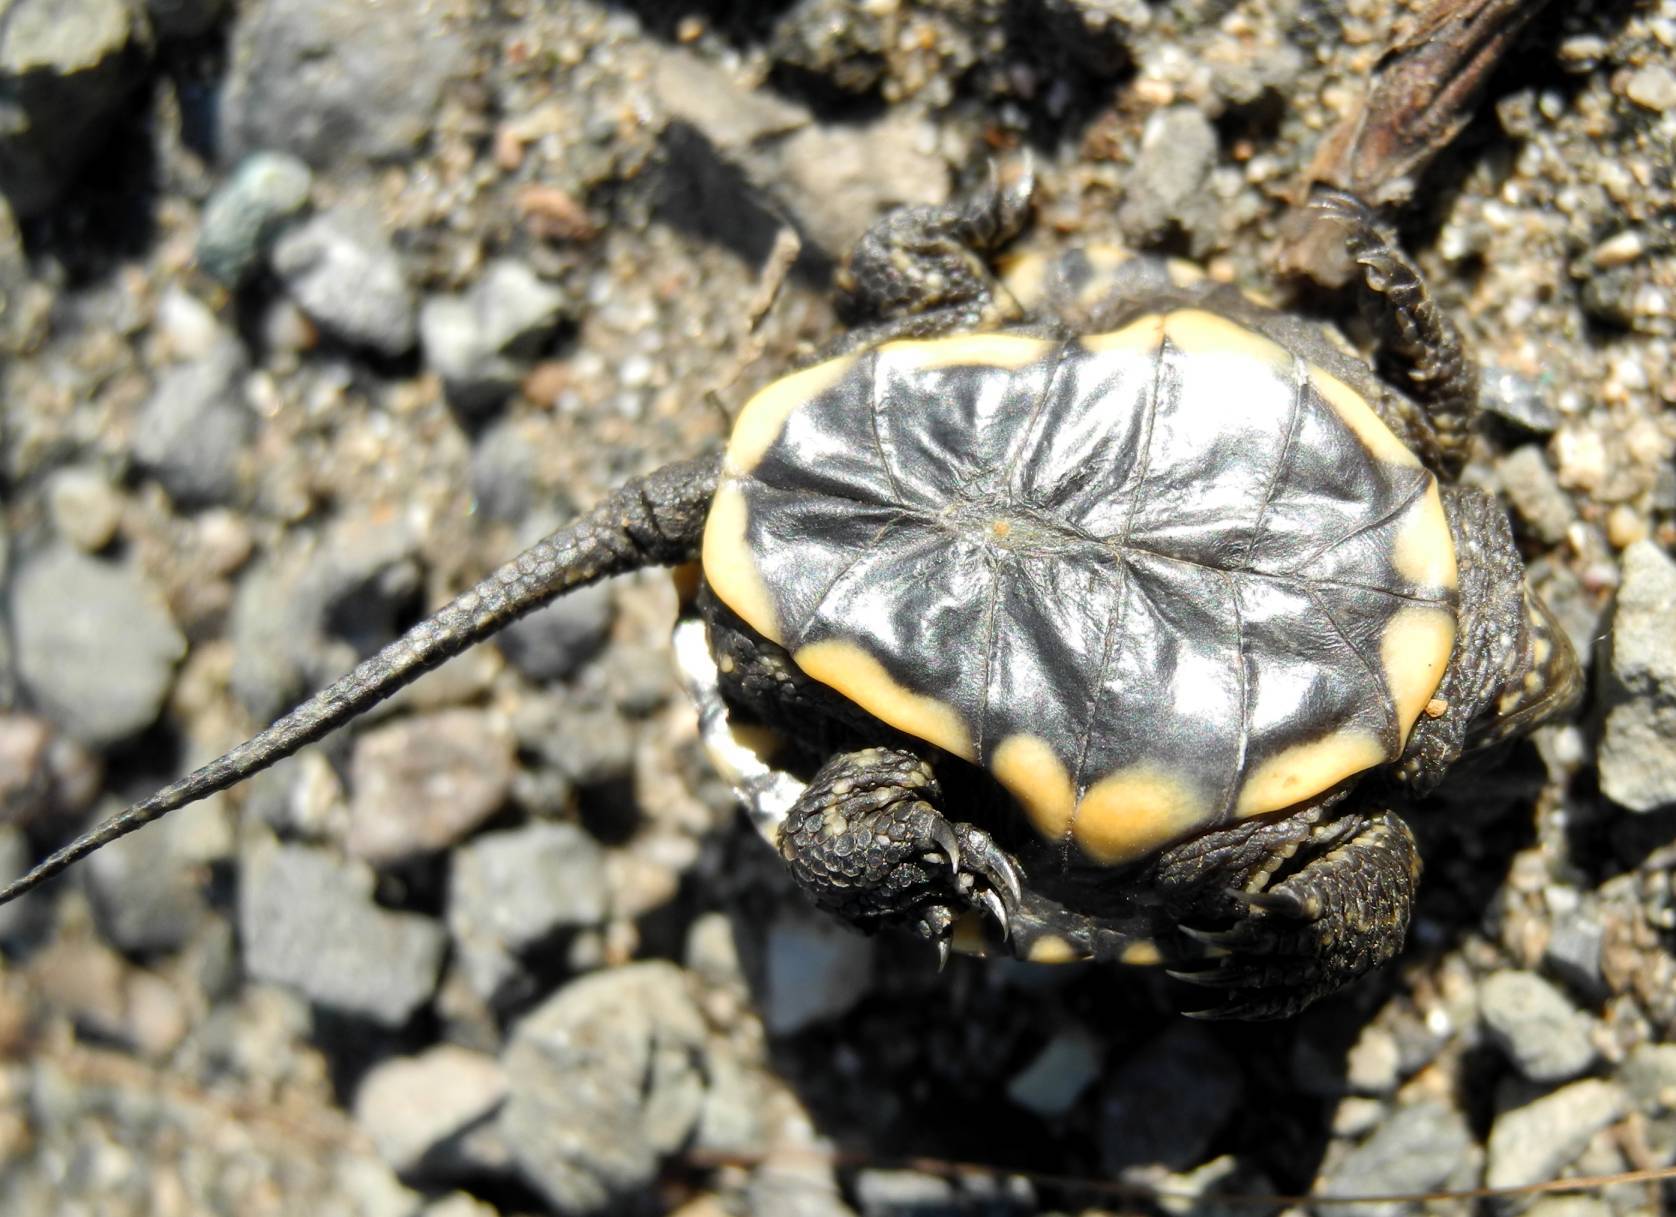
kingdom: Animalia
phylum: Chordata
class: Testudines
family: Emydidae
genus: Emys
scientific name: Emys orbicularis
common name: European pond turtle
